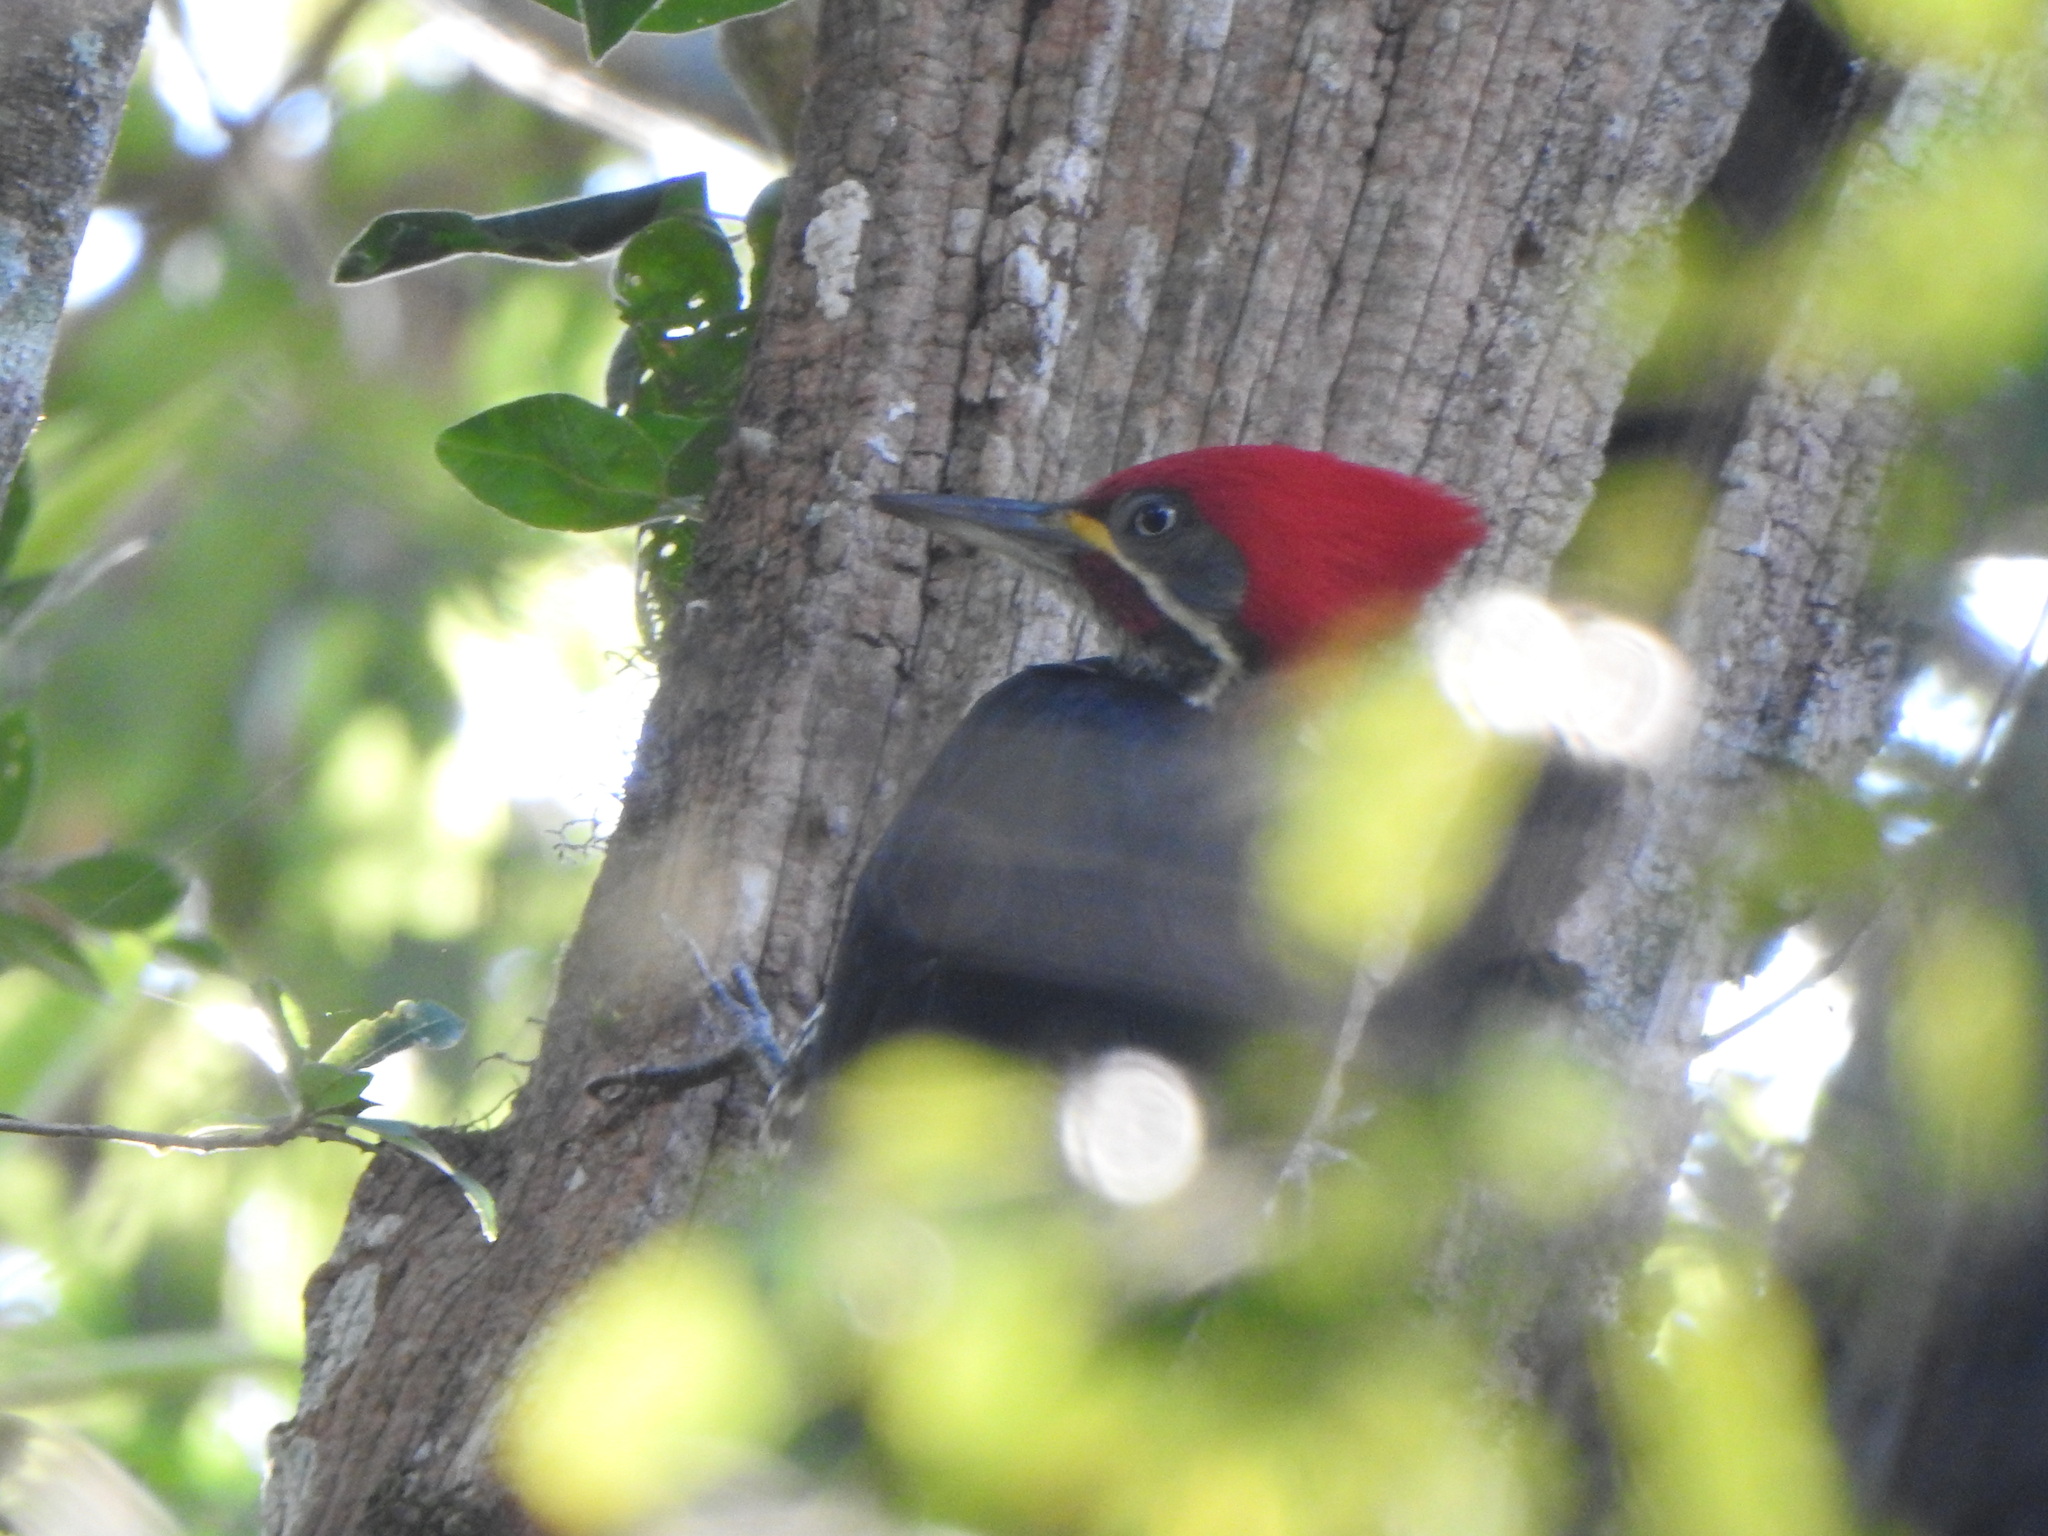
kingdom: Animalia
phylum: Chordata
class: Aves
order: Piciformes
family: Picidae
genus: Dryocopus
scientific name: Dryocopus lineatus
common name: Lineated woodpecker
